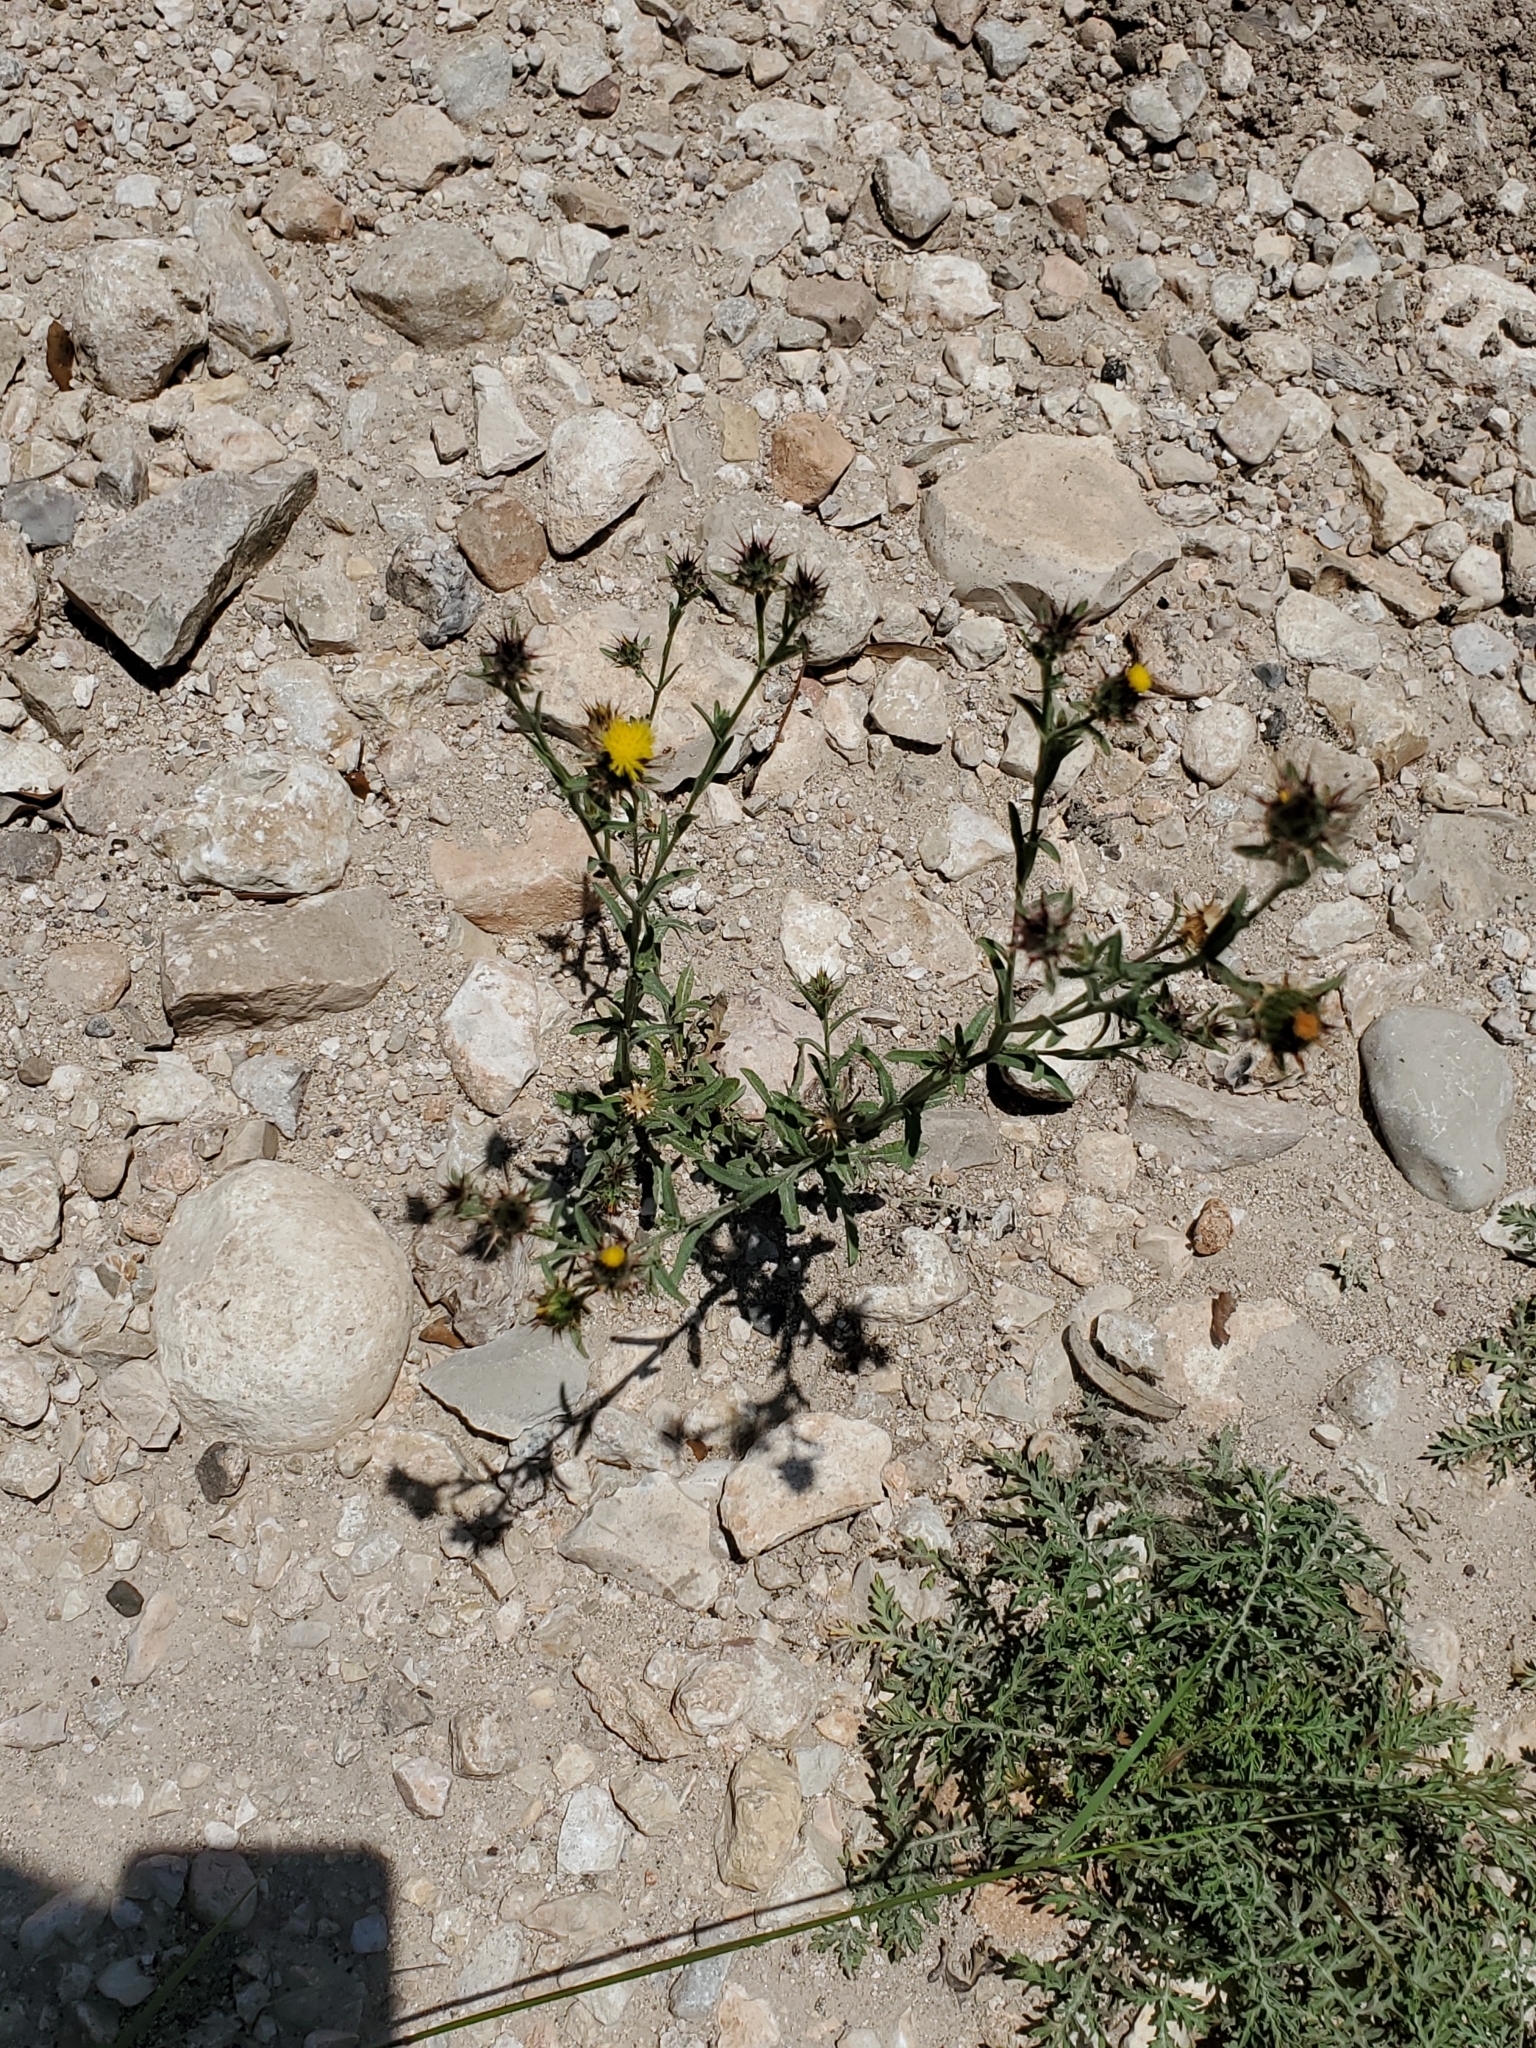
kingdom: Plantae
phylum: Tracheophyta
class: Magnoliopsida
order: Asterales
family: Asteraceae
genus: Centaurea
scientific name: Centaurea melitensis
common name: Maltese star-thistle
